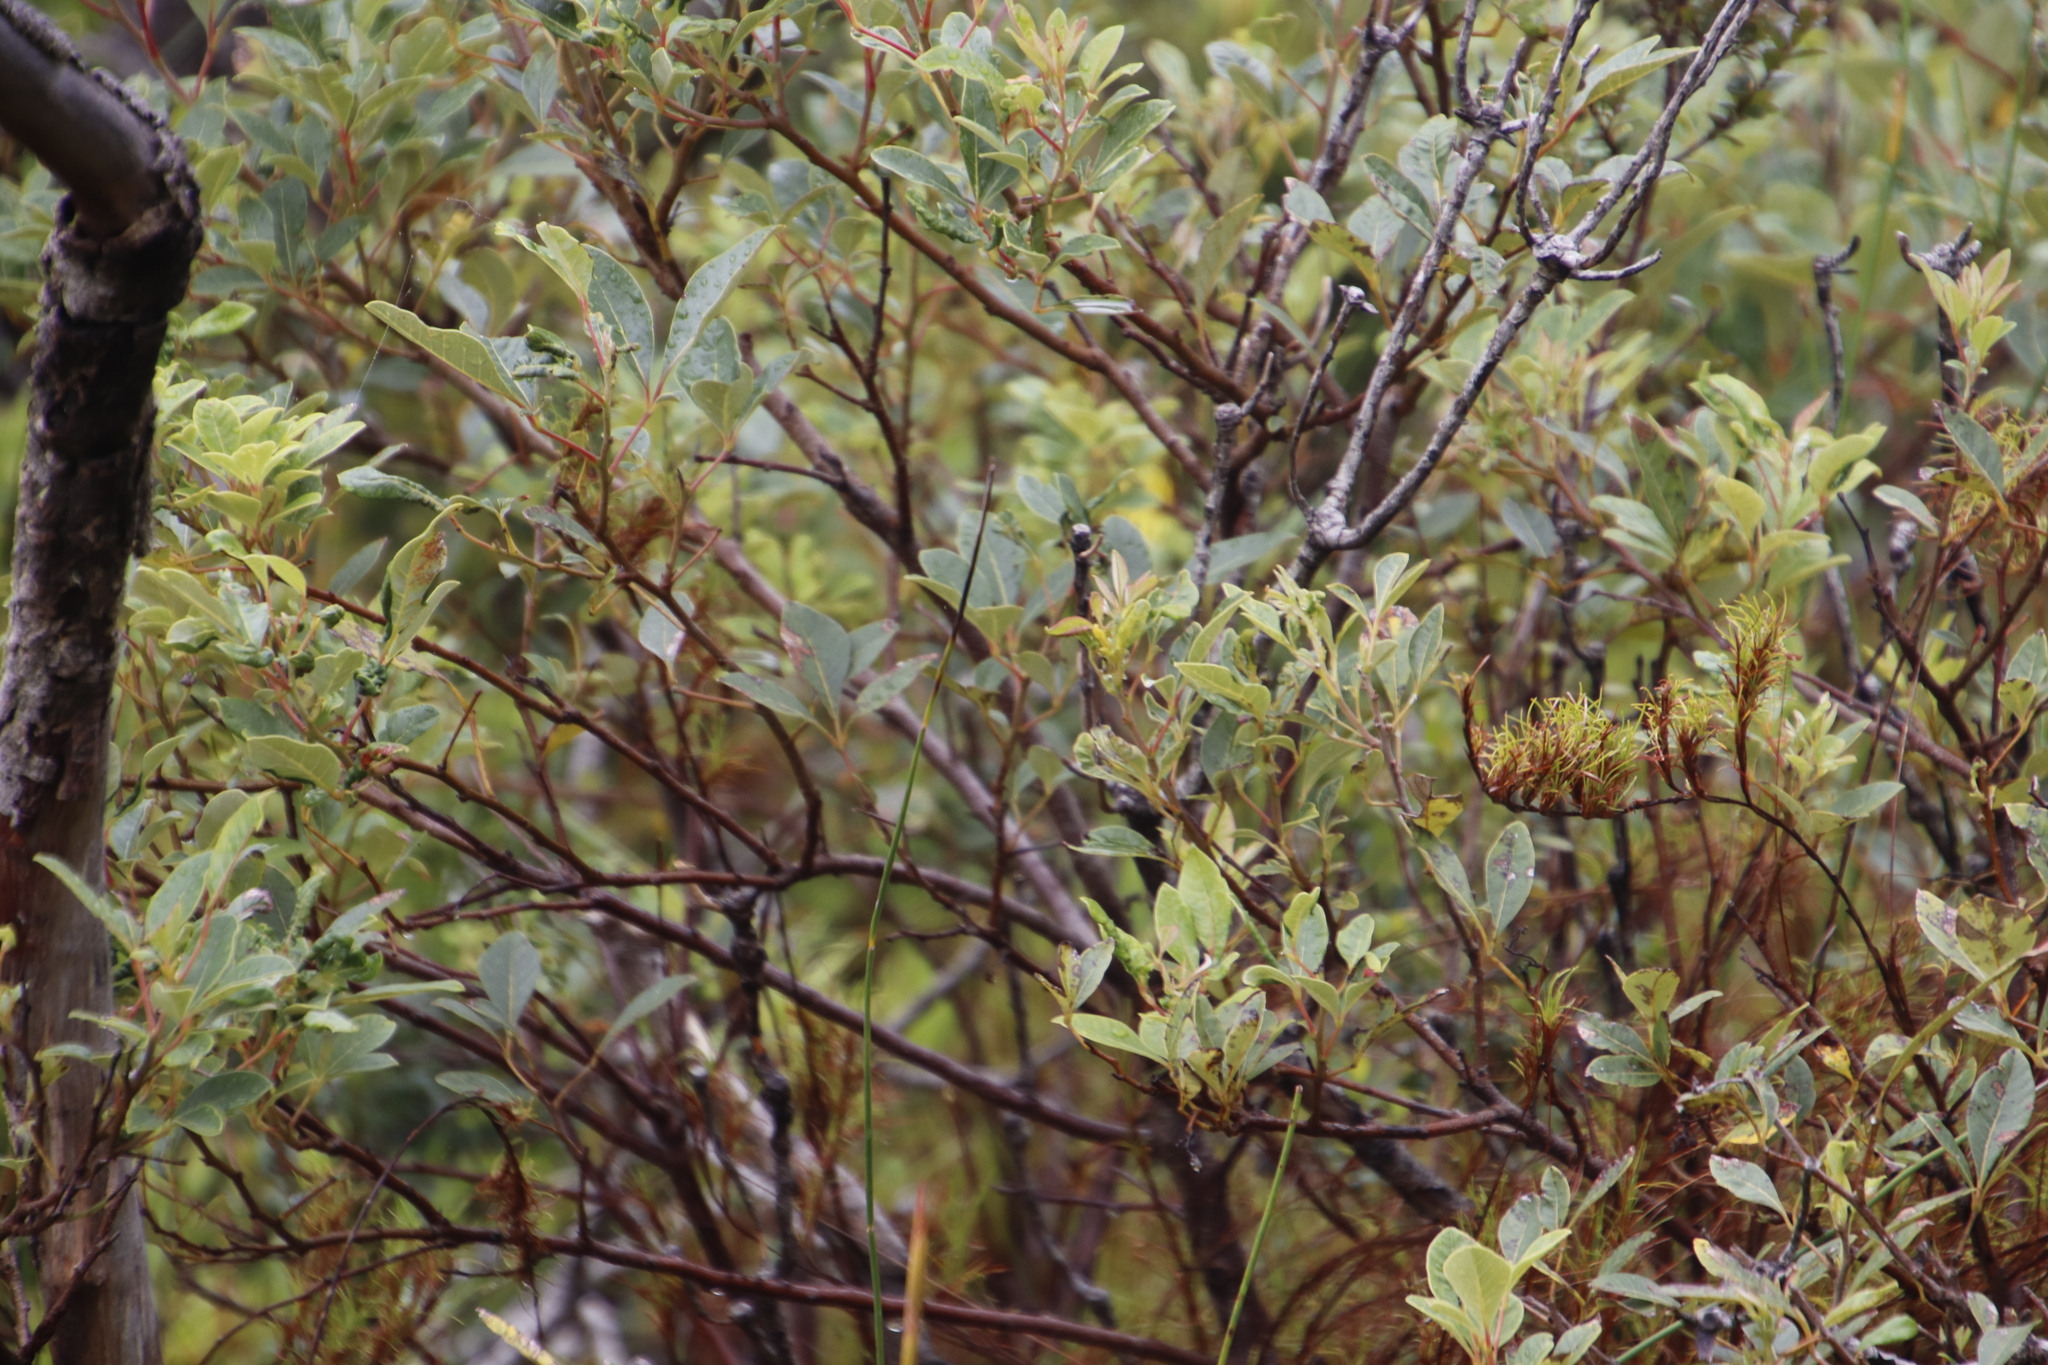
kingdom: Plantae
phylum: Tracheophyta
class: Magnoliopsida
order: Sapindales
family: Anacardiaceae
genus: Searsia
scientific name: Searsia tomentosa
